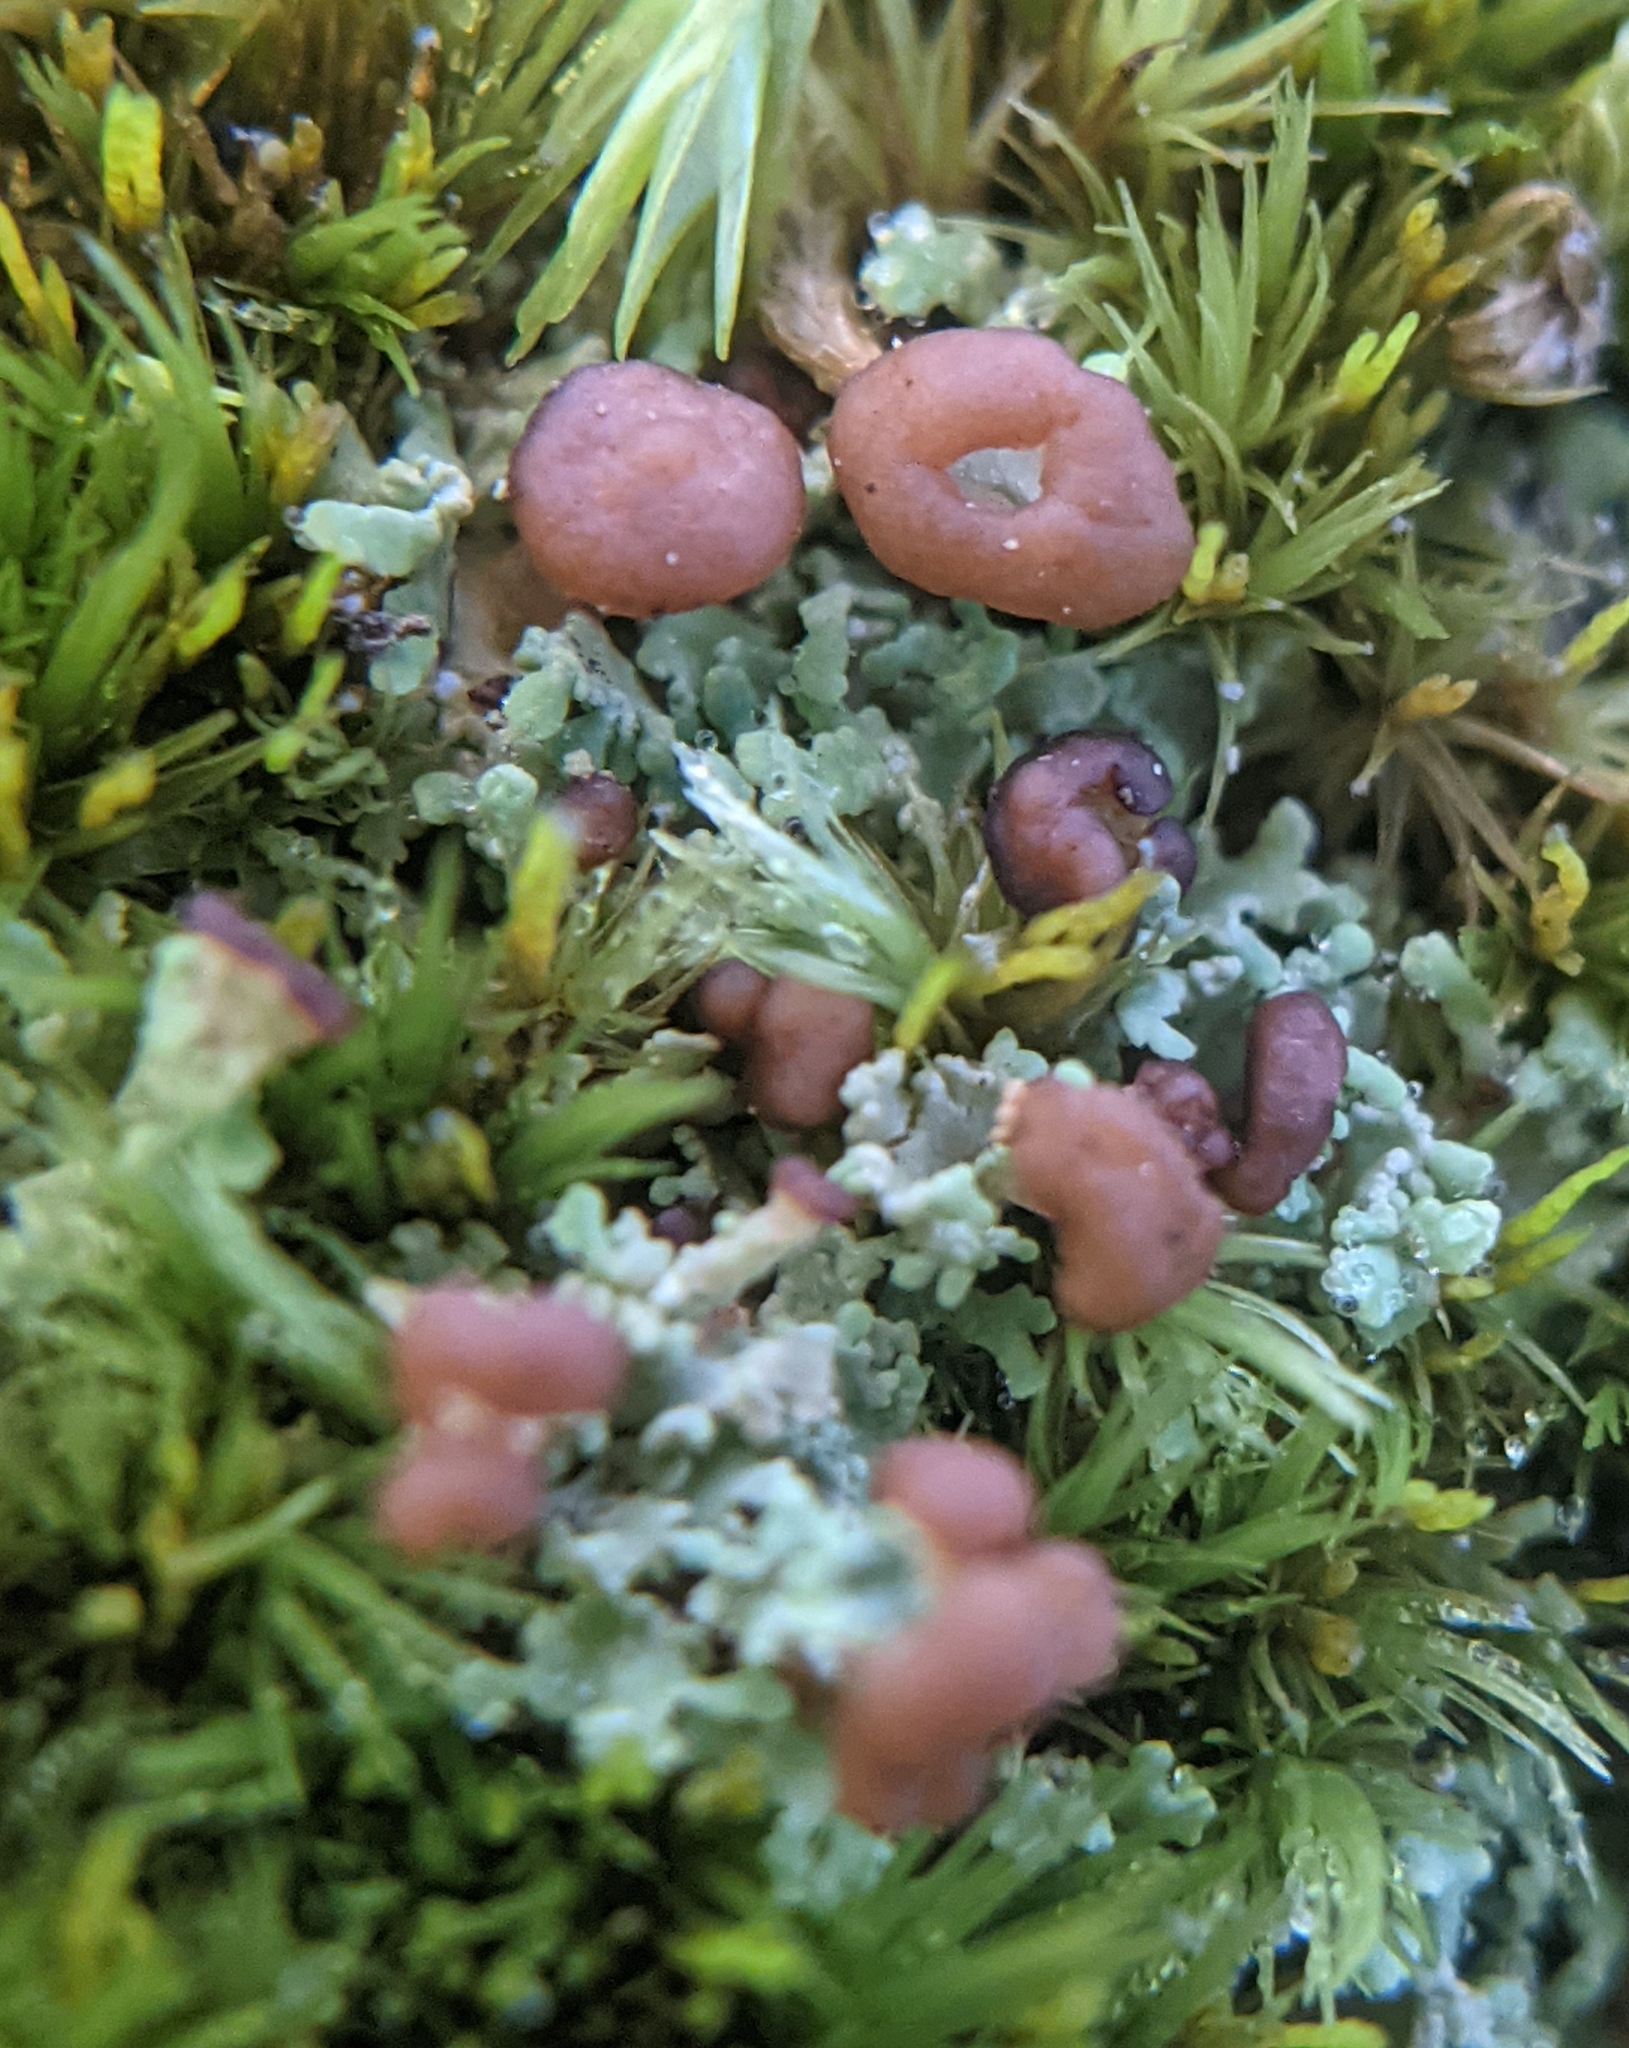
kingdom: Fungi
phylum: Ascomycota
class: Lecanoromycetes
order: Lecanorales
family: Cladoniaceae
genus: Cladonia
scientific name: Cladonia caespiticia
